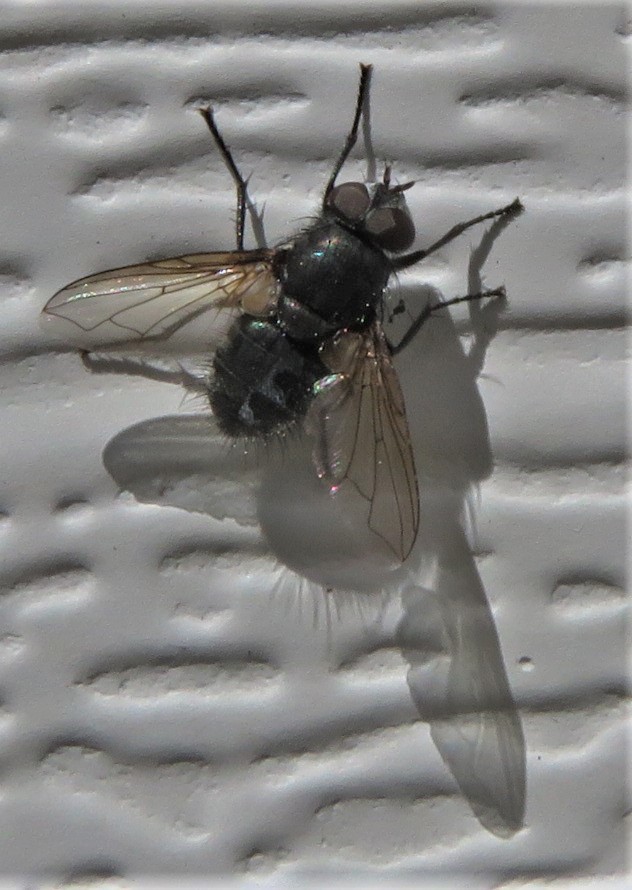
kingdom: Animalia
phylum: Arthropoda
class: Insecta
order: Diptera
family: Polleniidae
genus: Pollenia
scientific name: Pollenia
